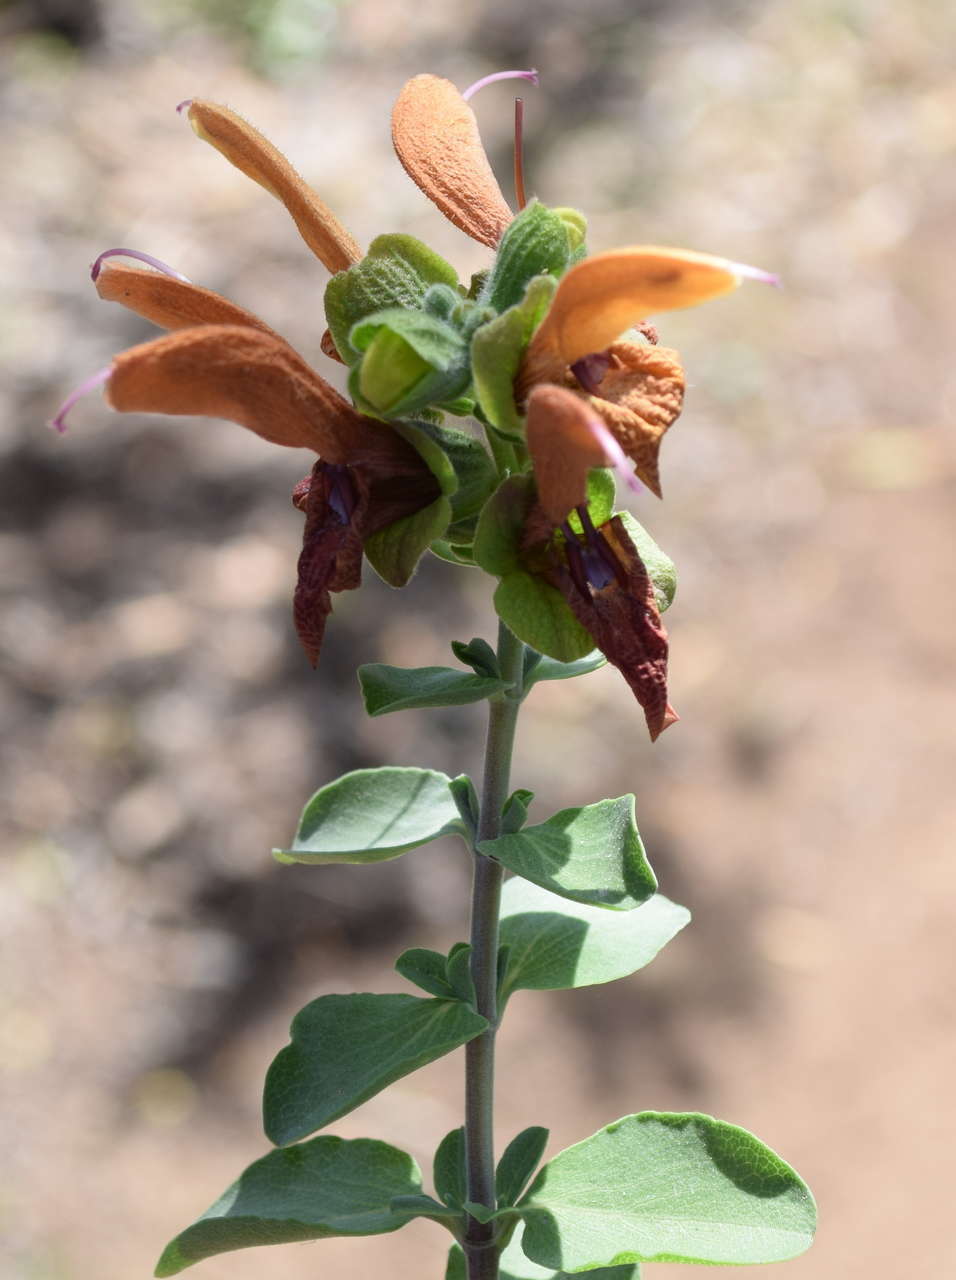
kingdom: Plantae
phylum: Tracheophyta
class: Magnoliopsida
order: Lamiales
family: Lamiaceae
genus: Salvia
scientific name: Salvia aurea
